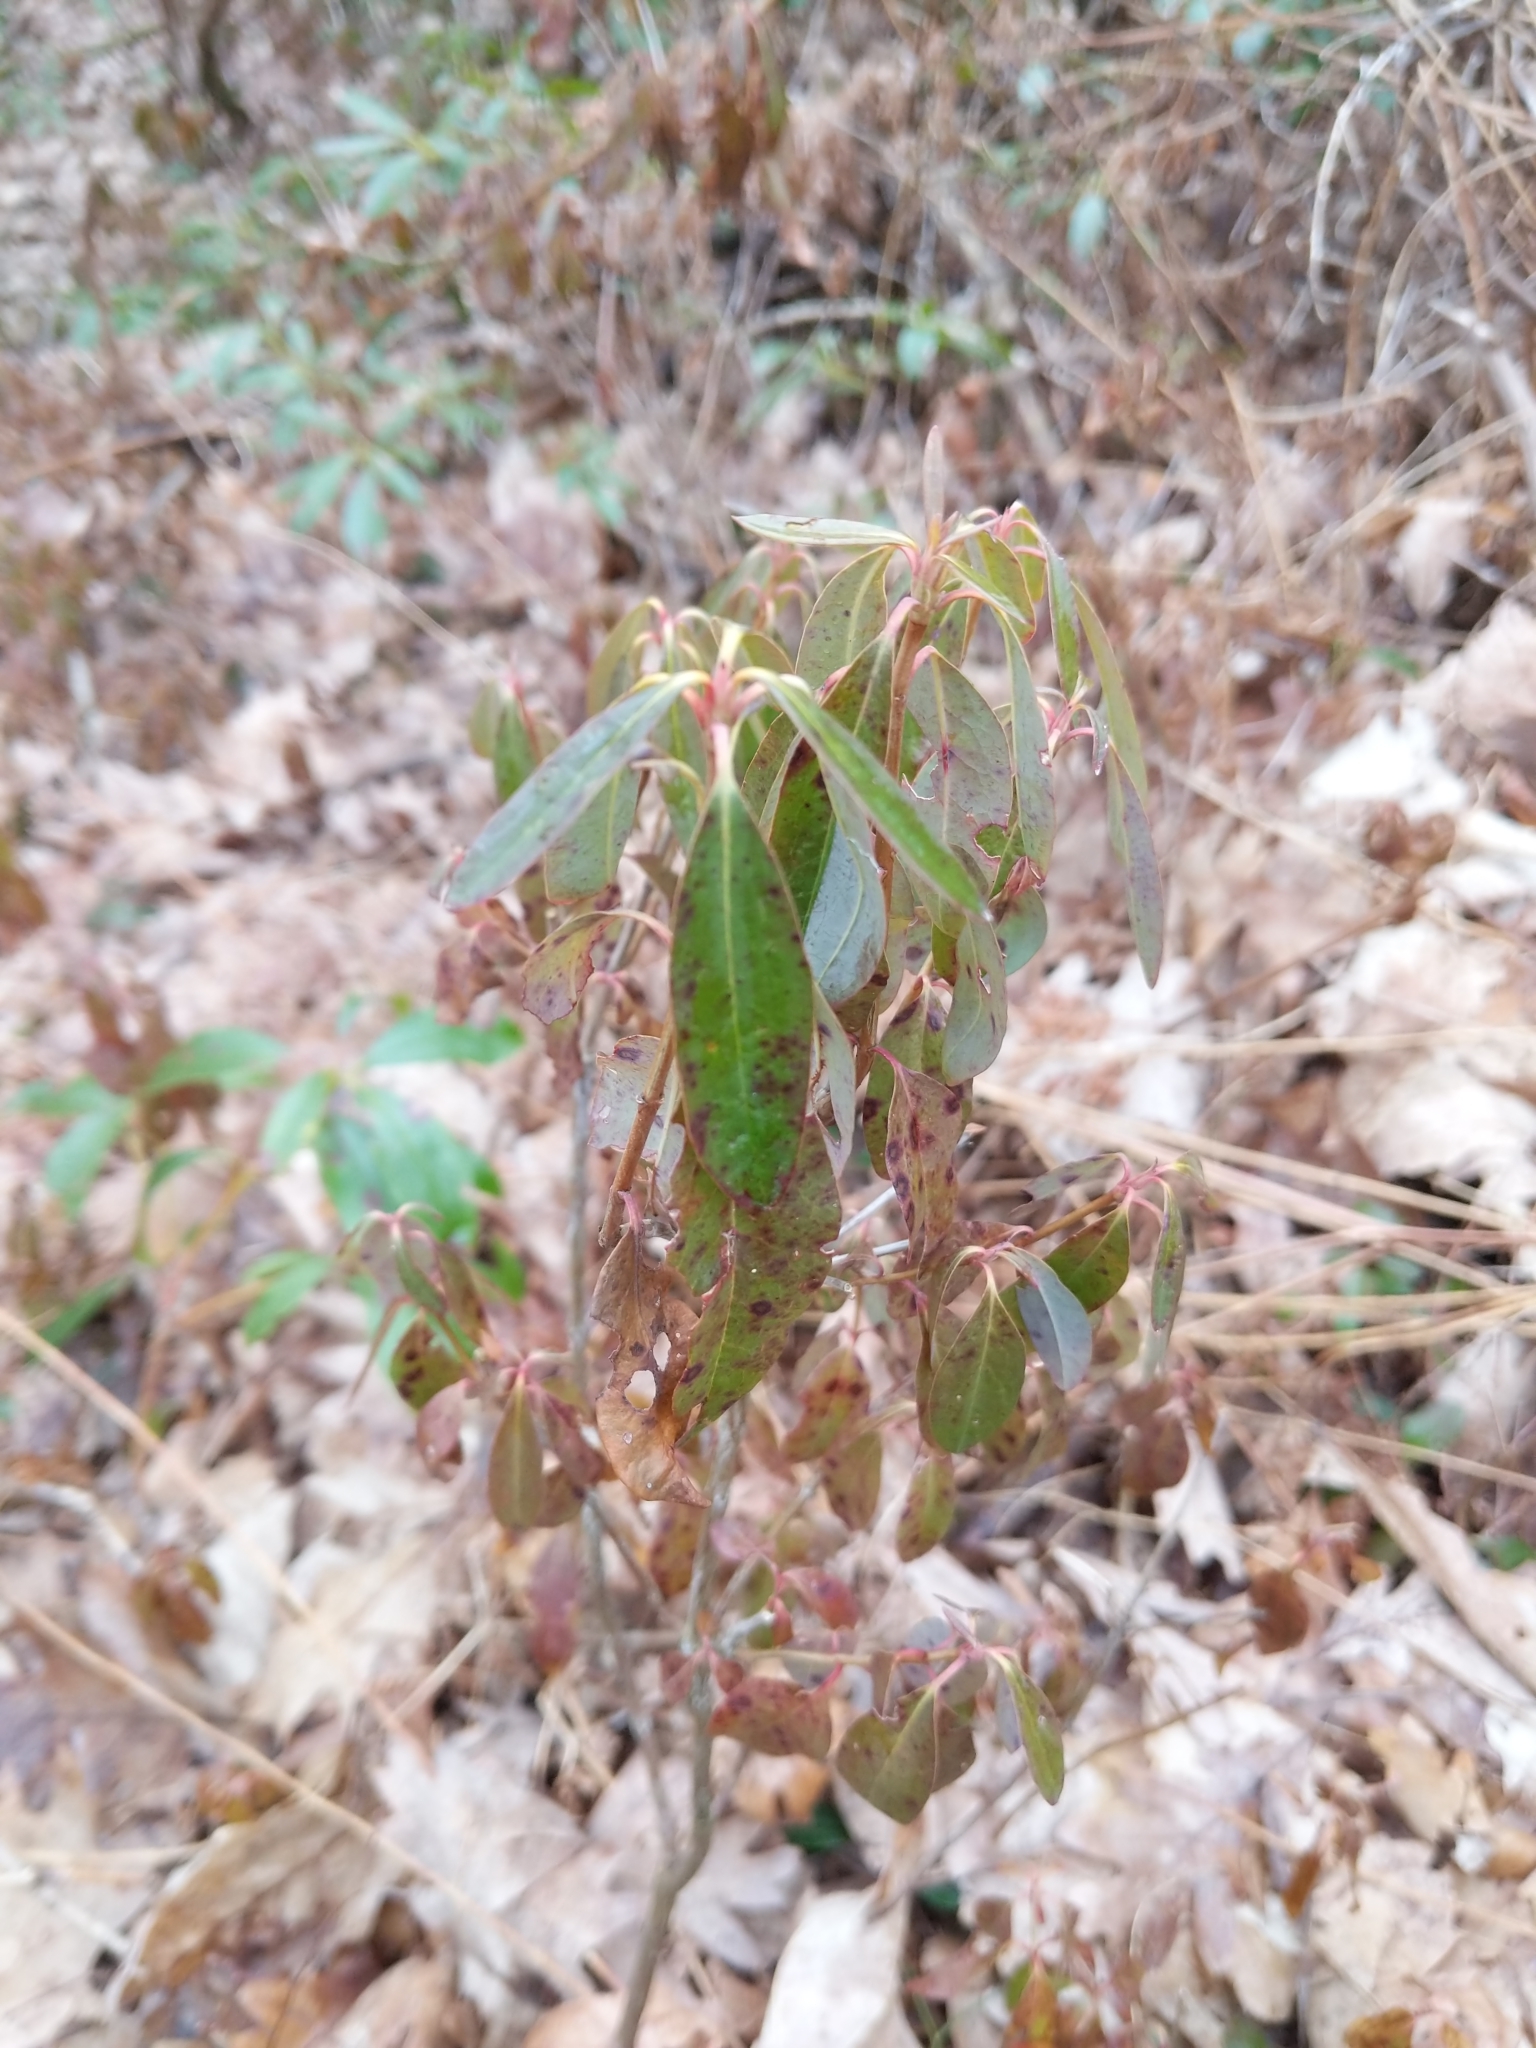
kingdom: Plantae
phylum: Tracheophyta
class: Magnoliopsida
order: Ericales
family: Ericaceae
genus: Kalmia
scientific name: Kalmia angustifolia
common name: Sheep-laurel
